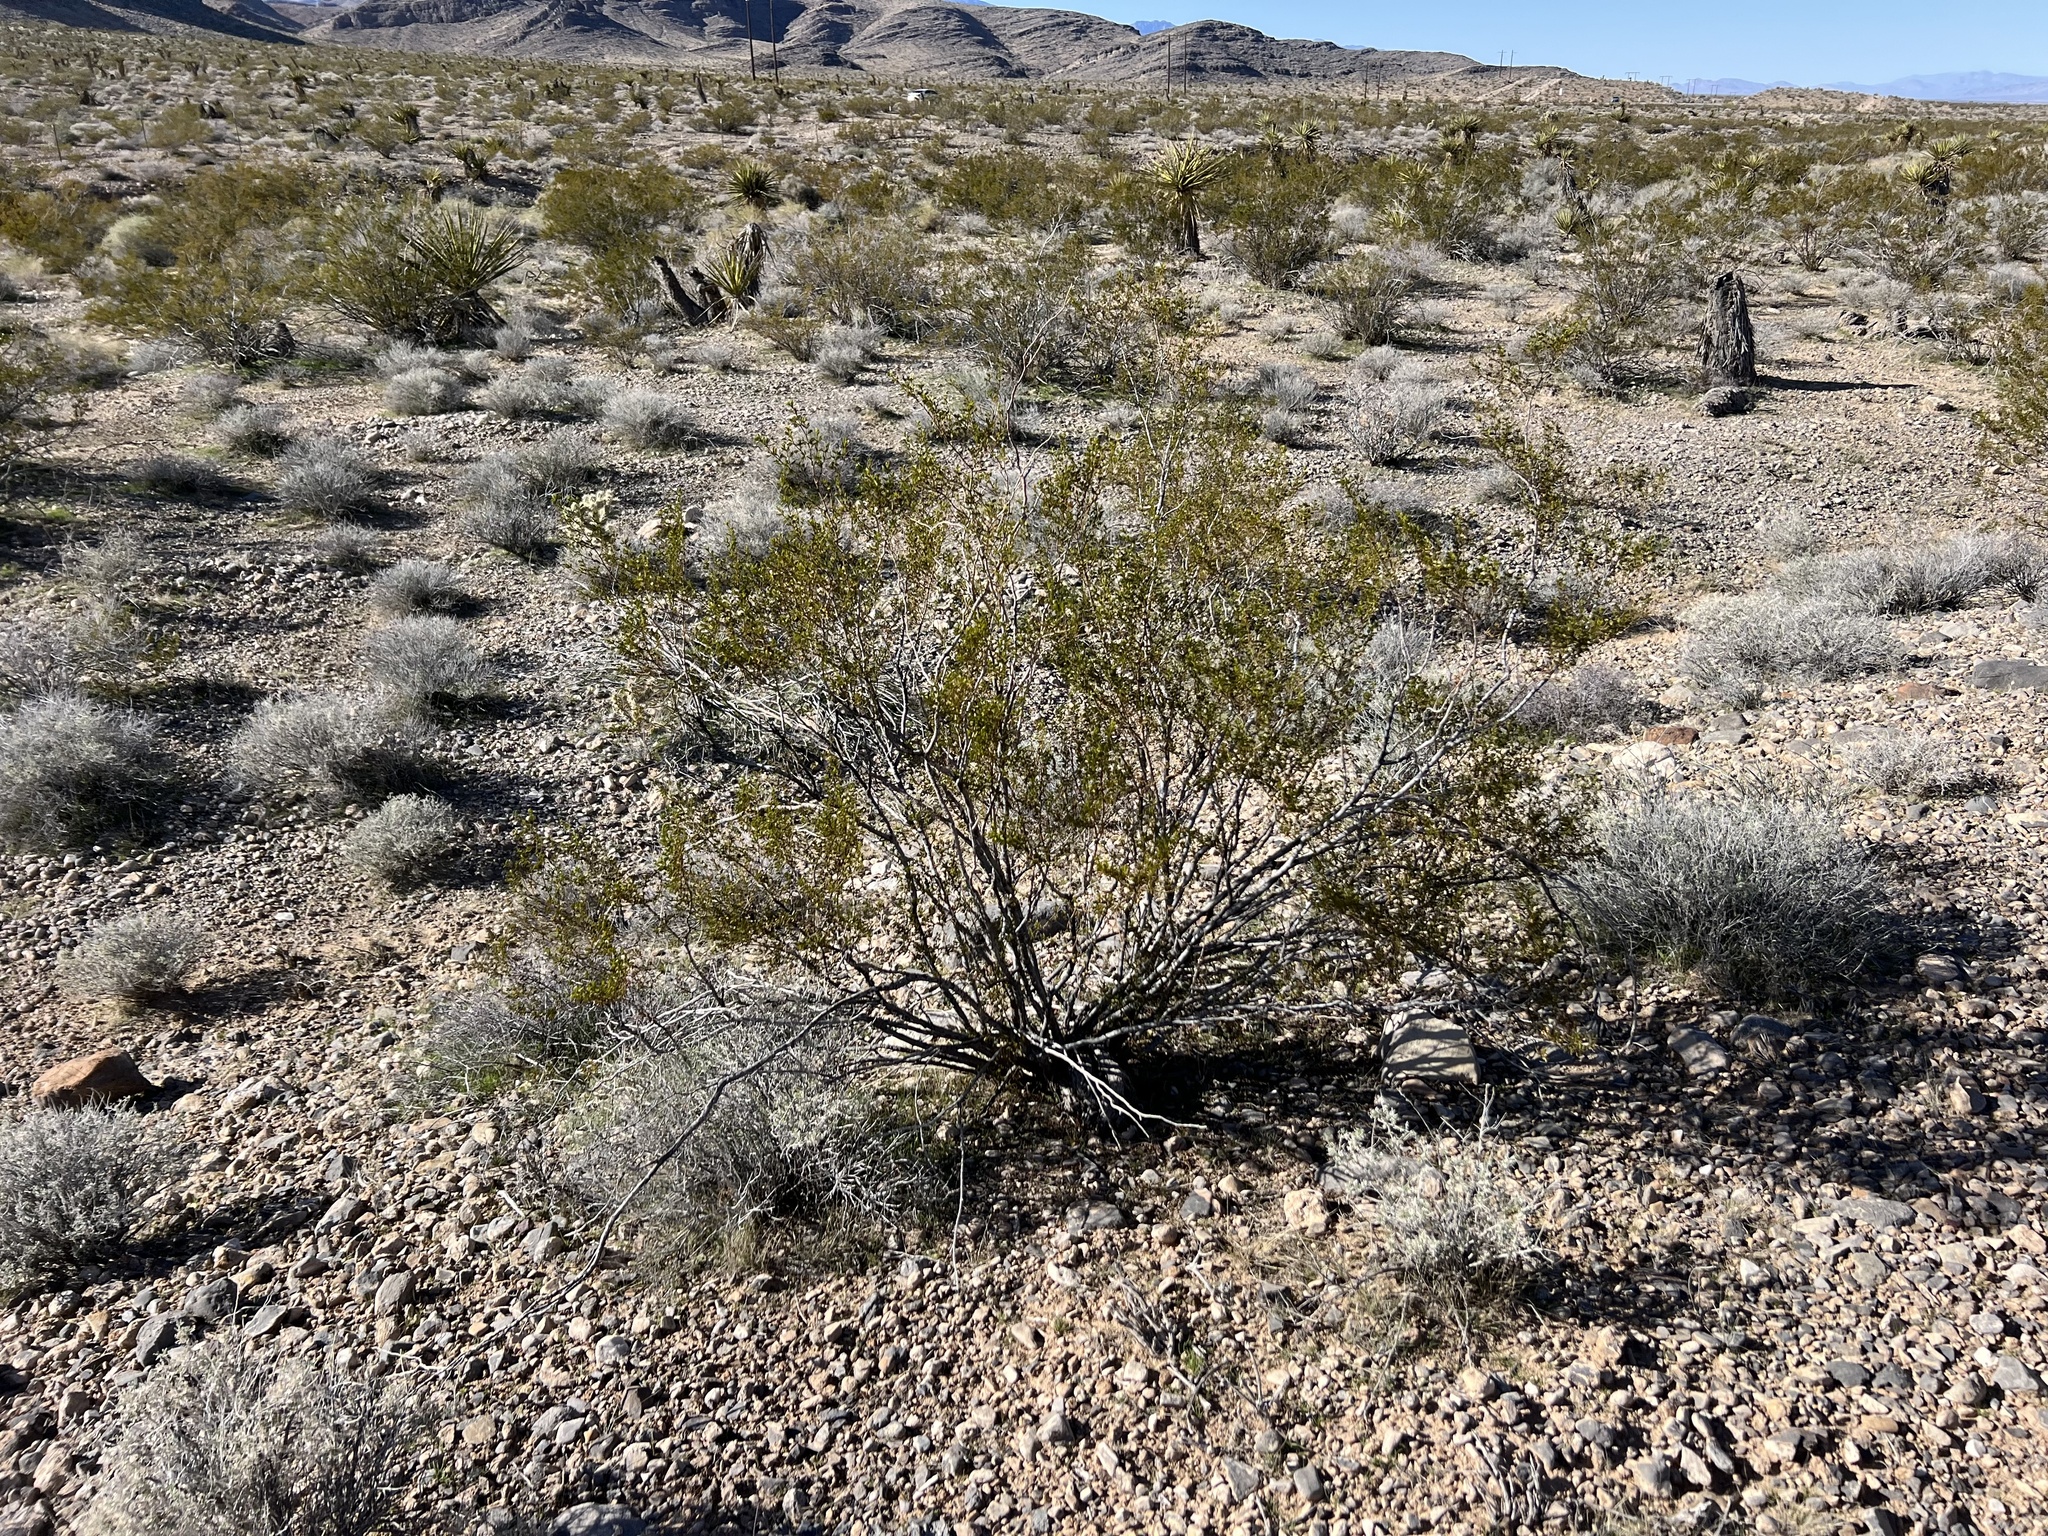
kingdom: Plantae
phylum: Tracheophyta
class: Magnoliopsida
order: Zygophyllales
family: Zygophyllaceae
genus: Larrea
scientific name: Larrea tridentata
